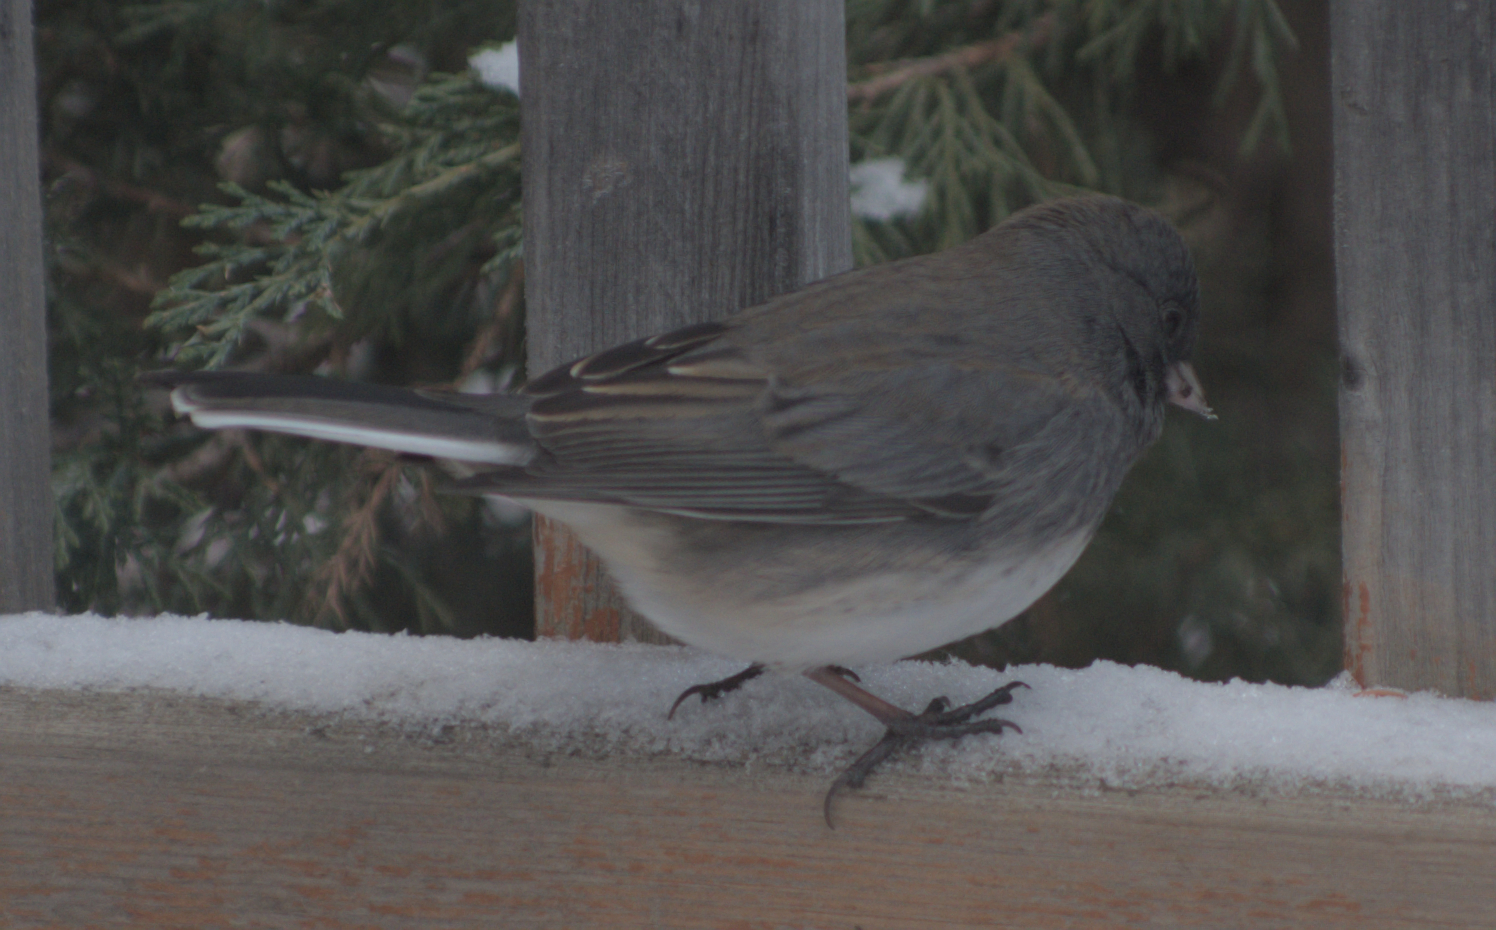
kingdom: Animalia
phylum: Chordata
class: Aves
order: Passeriformes
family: Passerellidae
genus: Junco
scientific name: Junco hyemalis
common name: Dark-eyed junco
